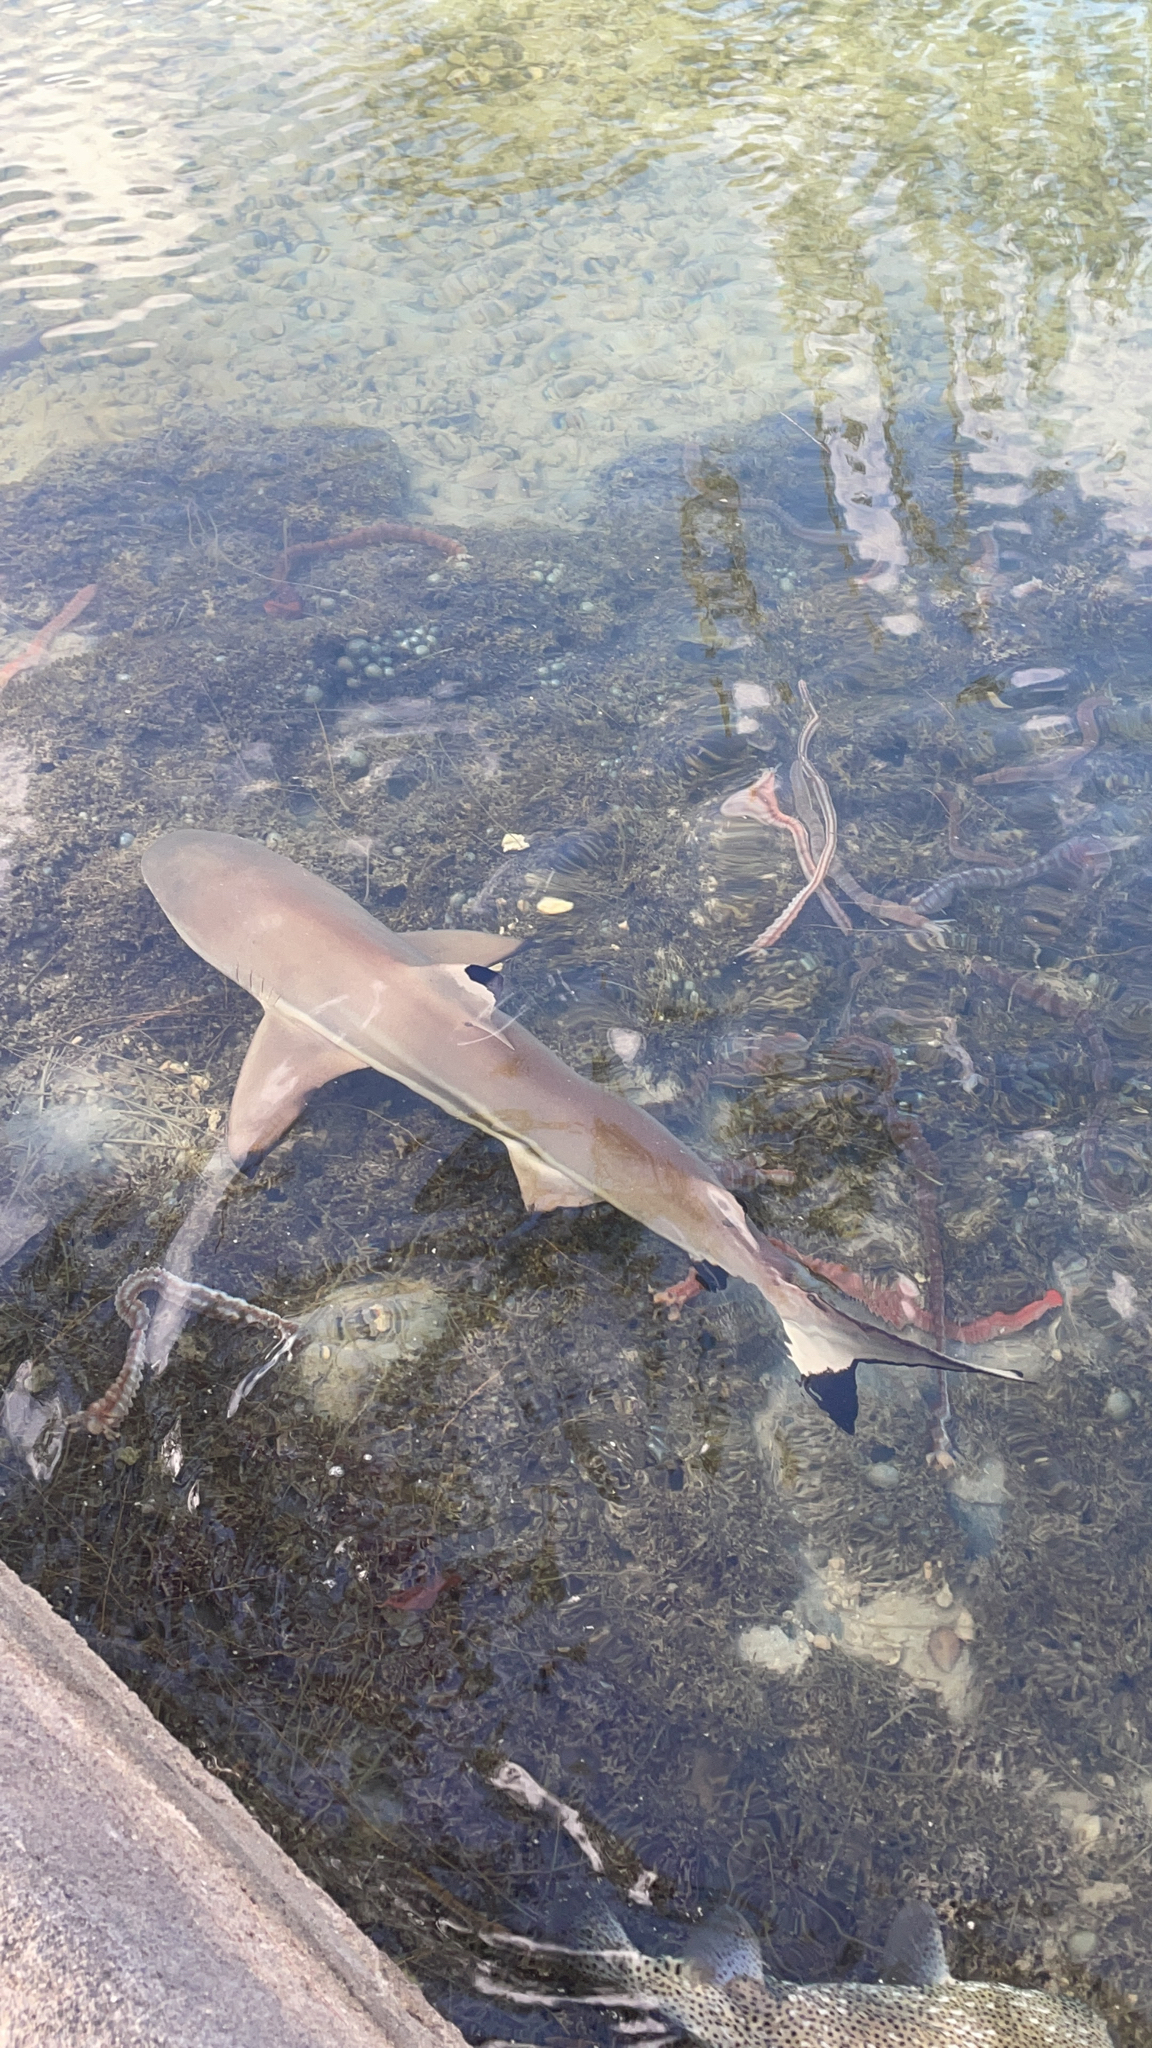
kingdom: Animalia
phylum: Chordata
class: Elasmobranchii
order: Carcharhiniformes
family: Carcharhinidae
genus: Carcharhinus
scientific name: Carcharhinus melanopterus
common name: Blacktip reef shark
